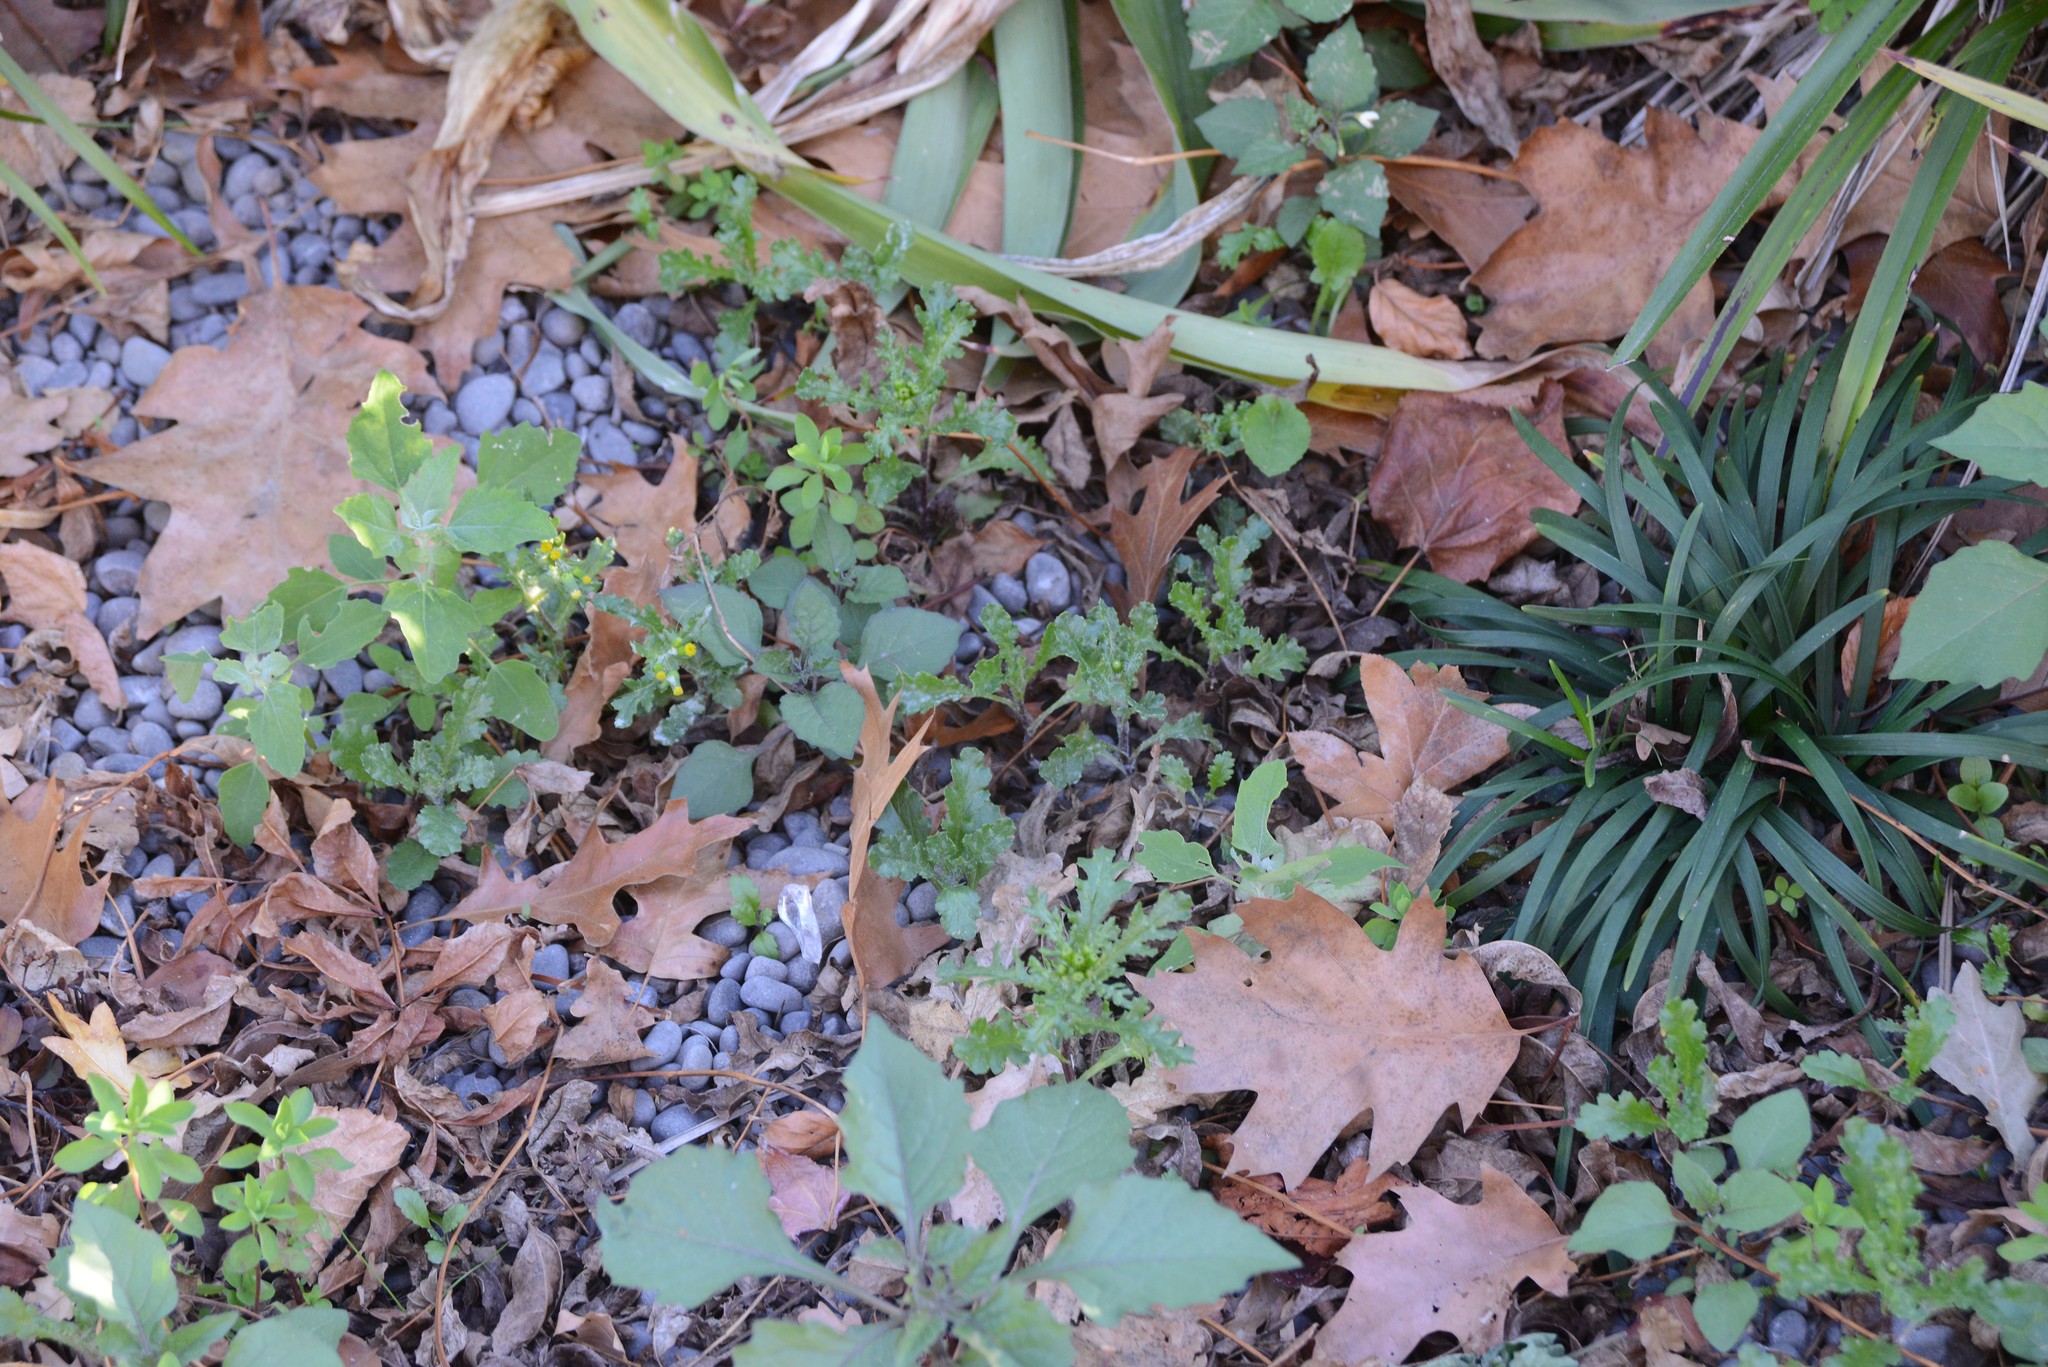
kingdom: Plantae
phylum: Tracheophyta
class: Magnoliopsida
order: Asterales
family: Asteraceae
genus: Senecio
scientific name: Senecio vulgaris
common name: Old-man-in-the-spring
